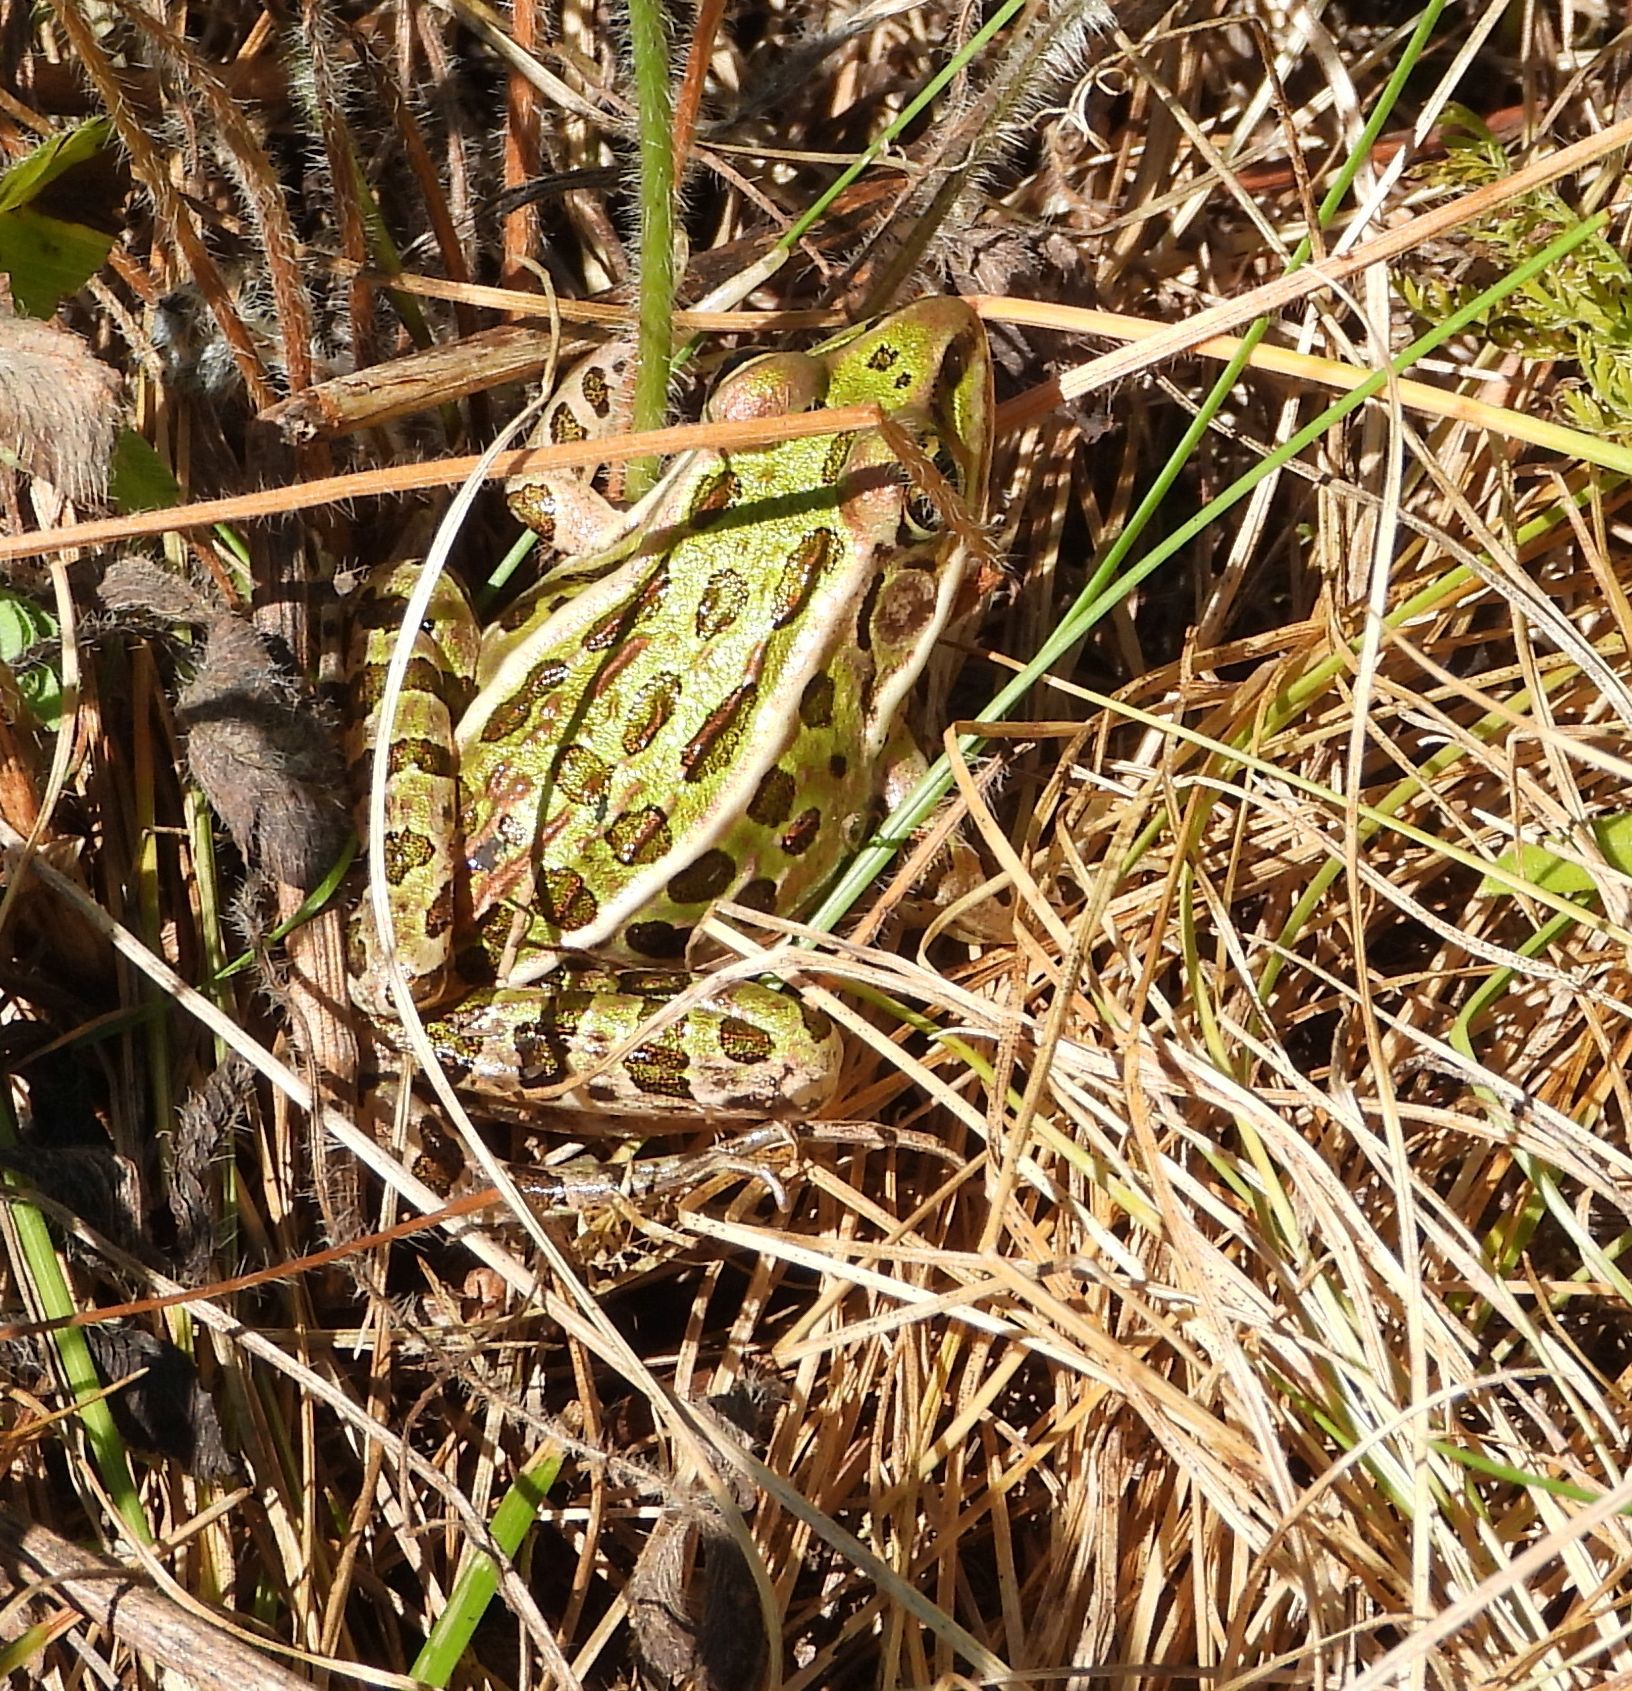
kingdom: Animalia
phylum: Chordata
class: Amphibia
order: Anura
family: Ranidae
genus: Lithobates
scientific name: Lithobates pipiens
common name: Northern leopard frog
